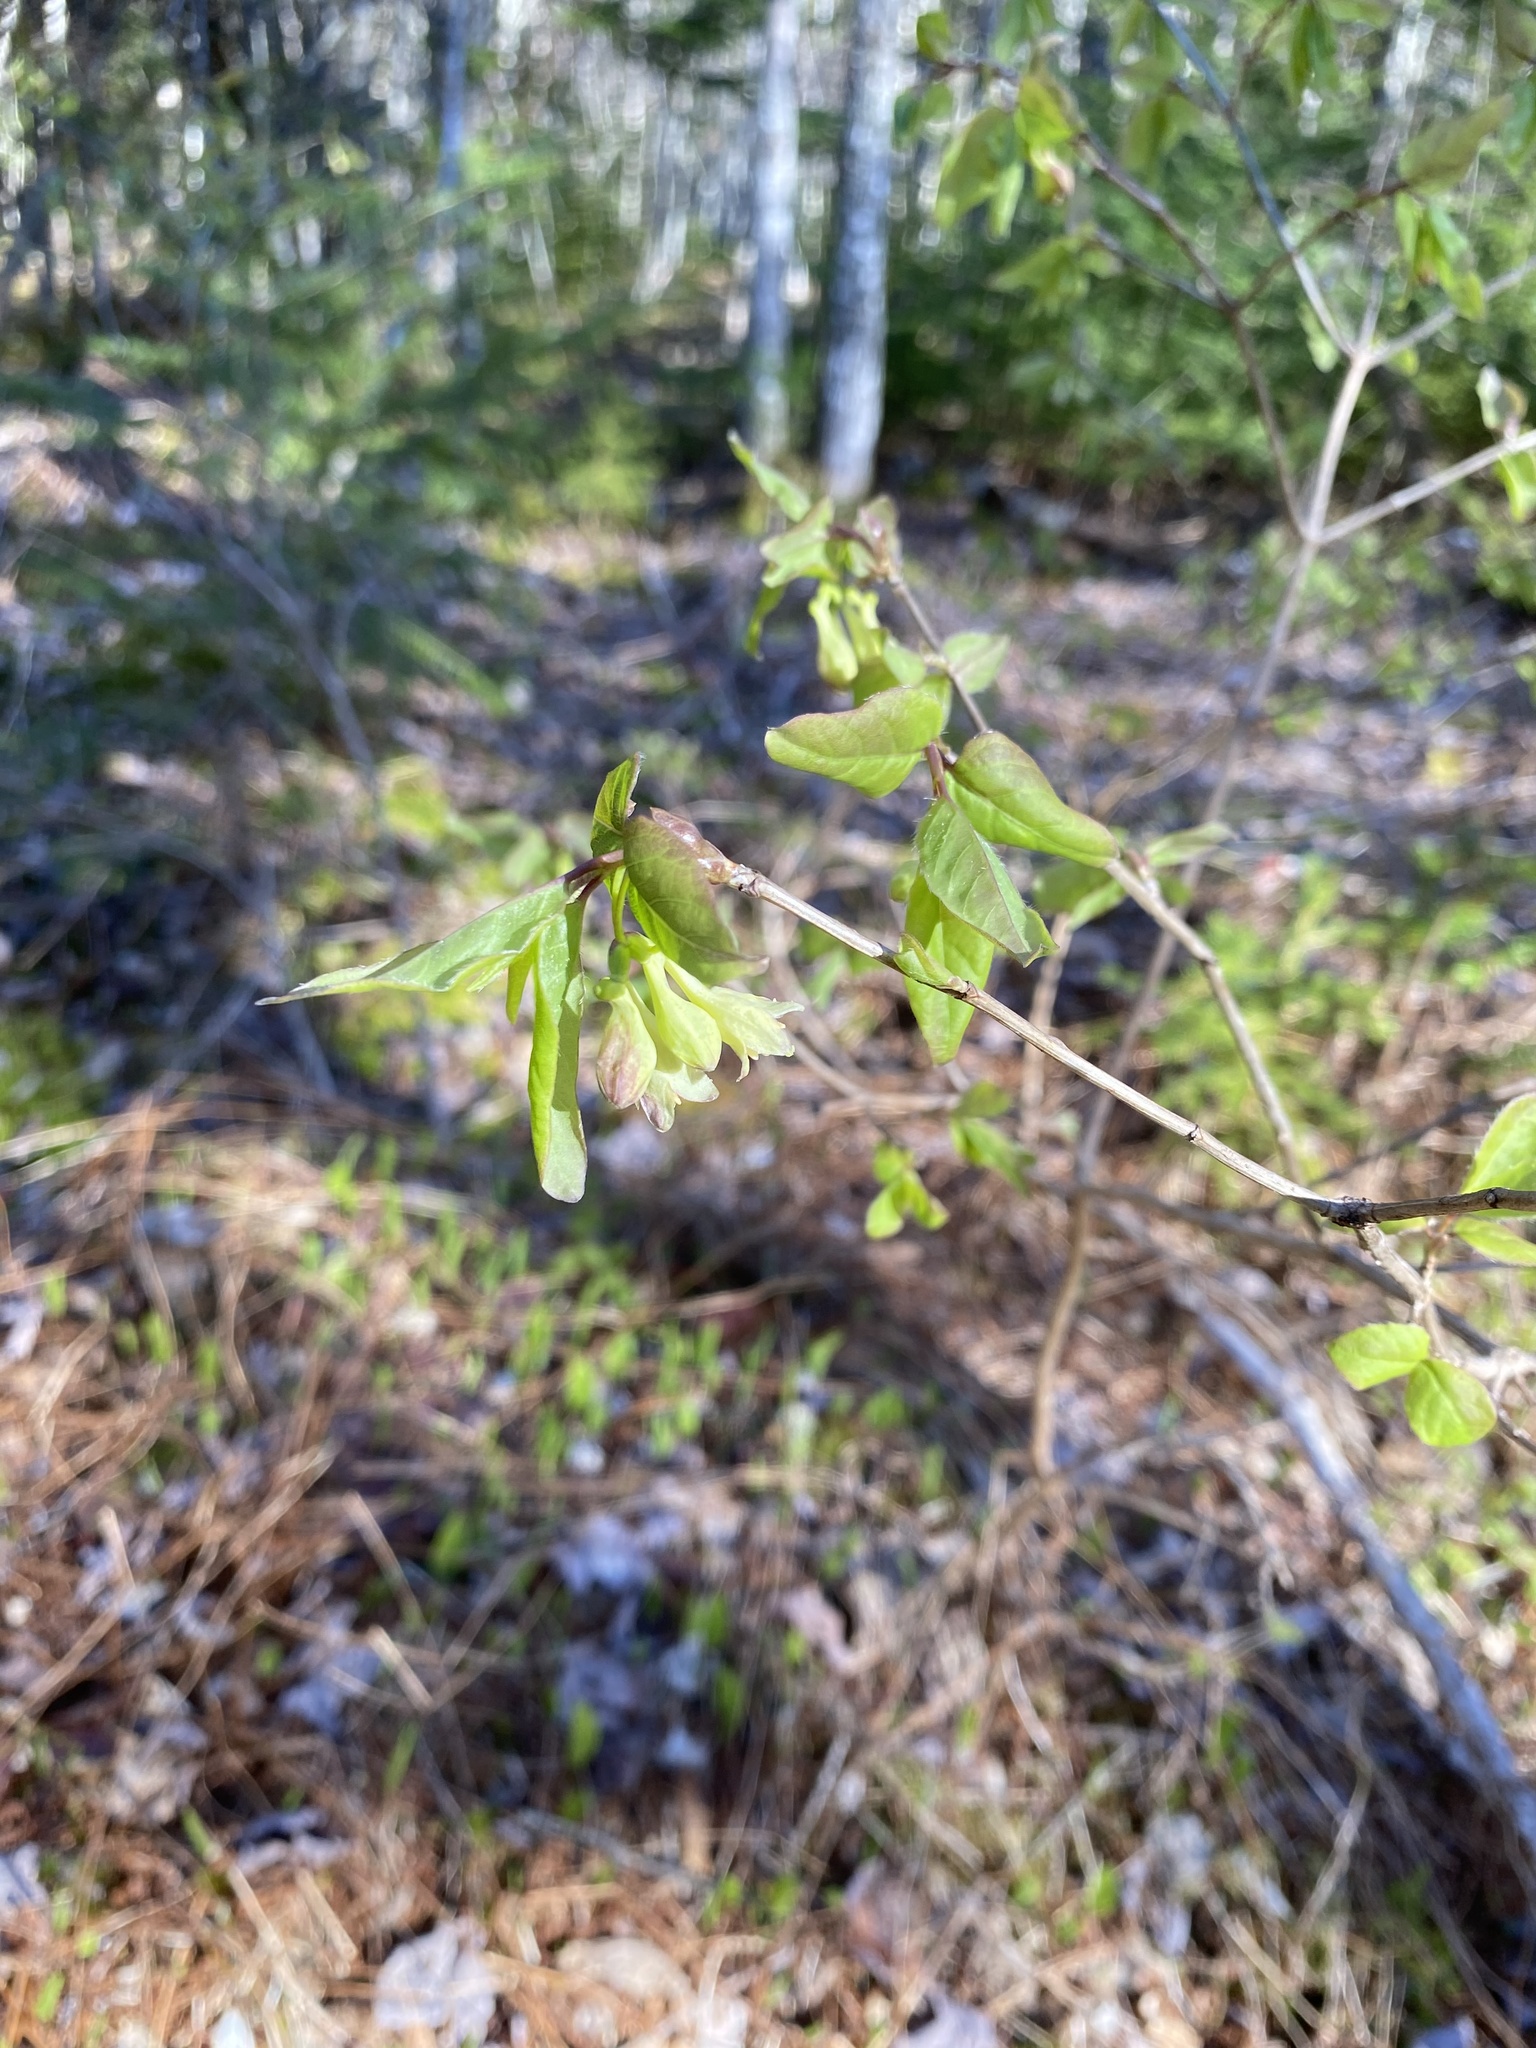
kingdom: Plantae
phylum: Tracheophyta
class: Magnoliopsida
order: Dipsacales
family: Caprifoliaceae
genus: Lonicera
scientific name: Lonicera canadensis
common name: American fly-honeysuckle
